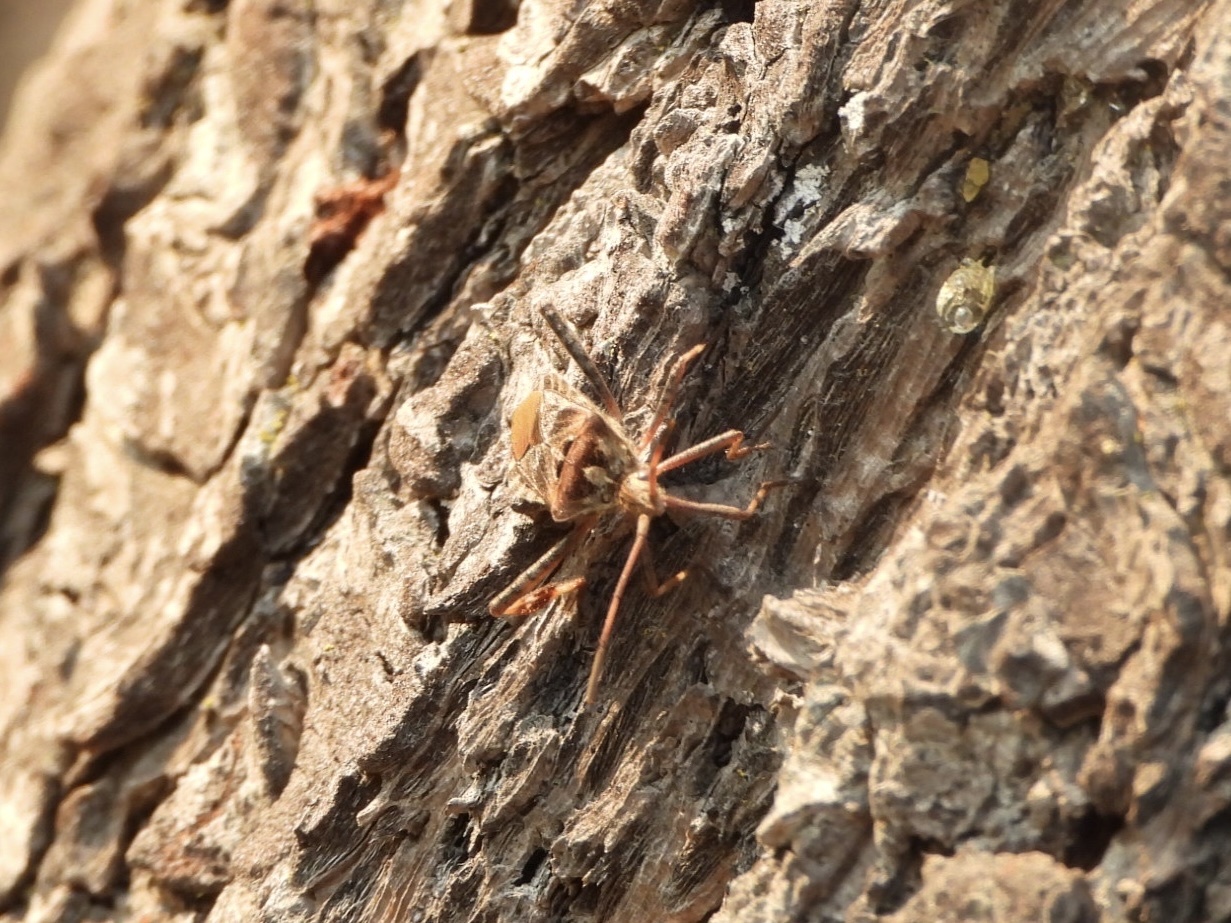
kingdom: Animalia
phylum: Arthropoda
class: Insecta
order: Hemiptera
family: Coreidae
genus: Leptoglossus
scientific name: Leptoglossus occidentalis
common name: Western conifer-seed bug
